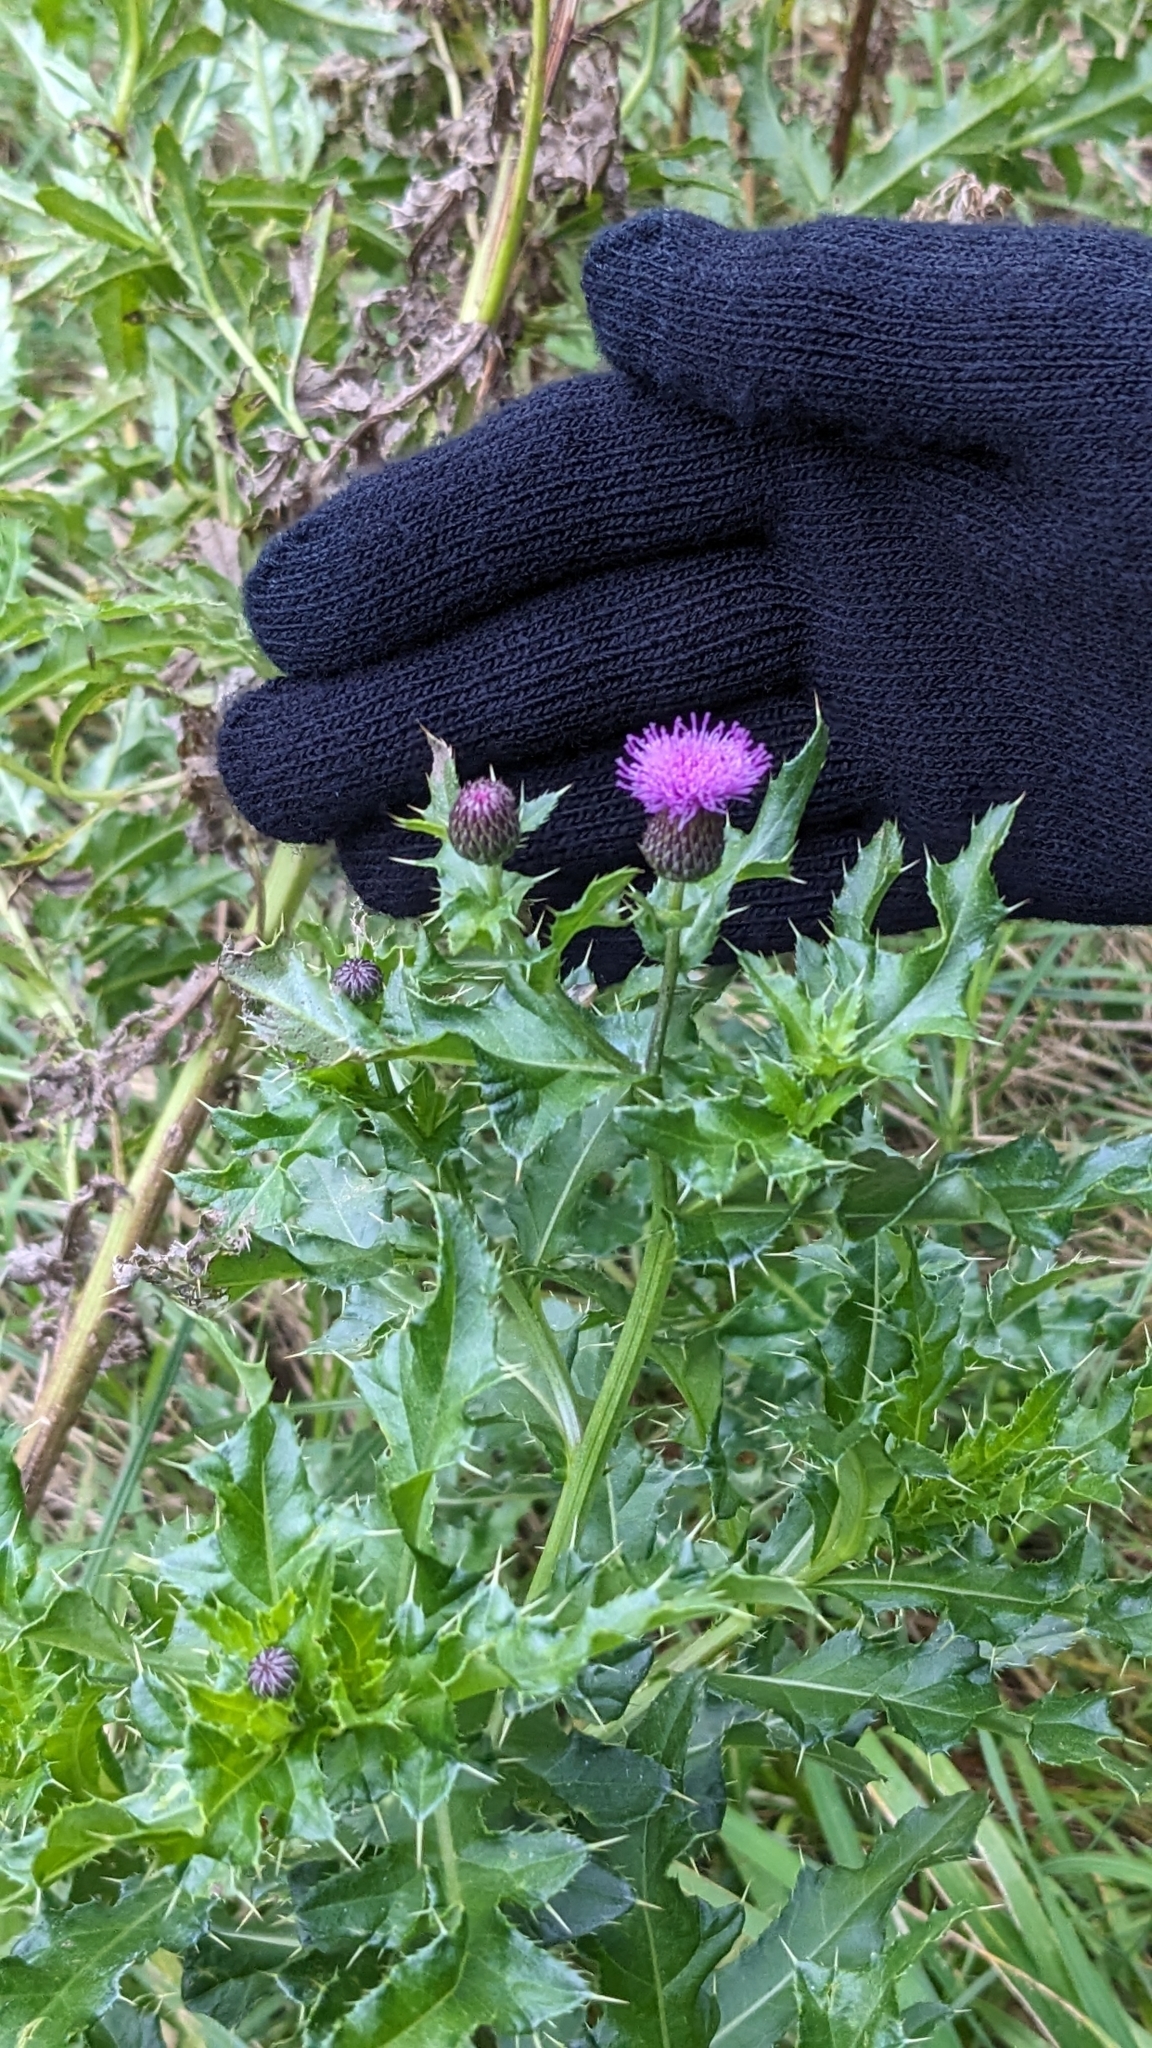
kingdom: Plantae
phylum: Tracheophyta
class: Magnoliopsida
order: Asterales
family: Asteraceae
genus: Cirsium
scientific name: Cirsium arvense
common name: Creeping thistle
